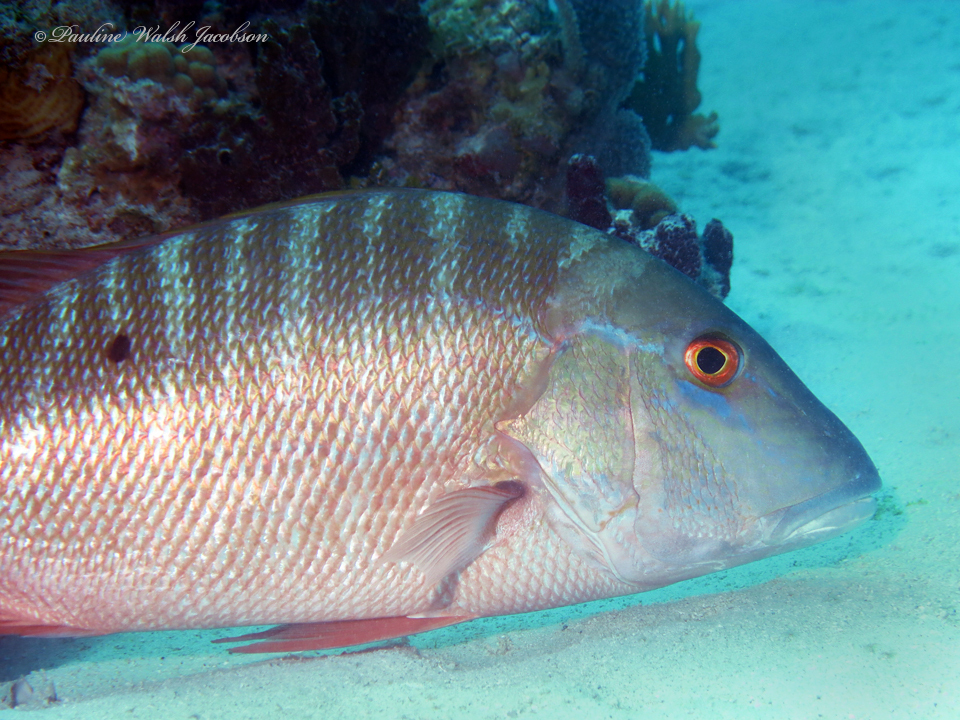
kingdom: Animalia
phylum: Chordata
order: Perciformes
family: Lutjanidae
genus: Lutjanus
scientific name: Lutjanus analis
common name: Mutton snapper
